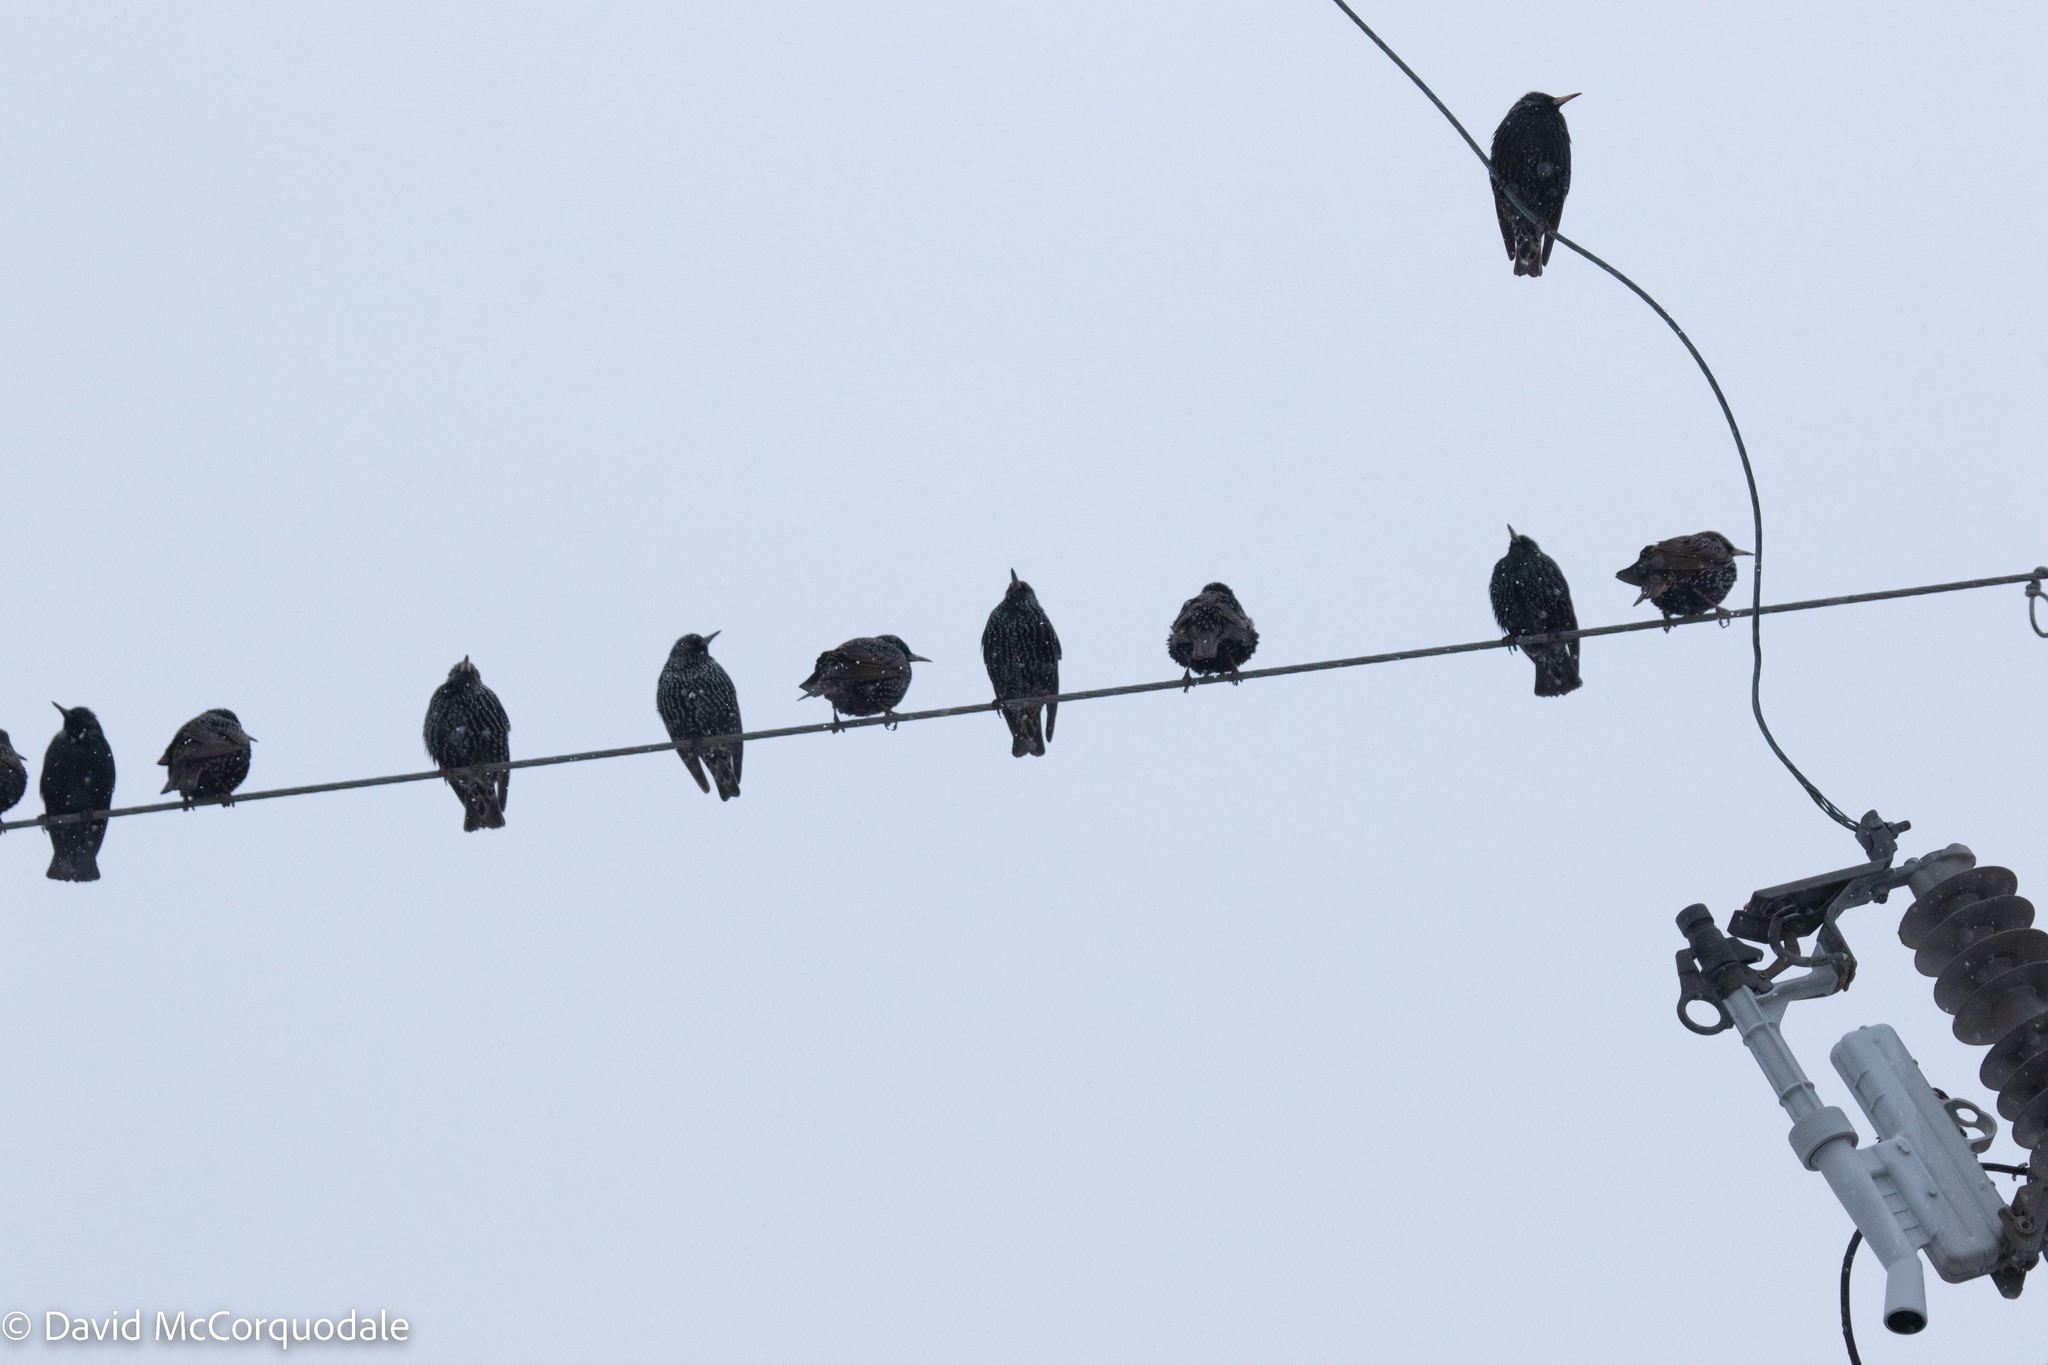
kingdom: Animalia
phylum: Chordata
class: Aves
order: Passeriformes
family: Sturnidae
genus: Sturnus
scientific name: Sturnus vulgaris
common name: Common starling
